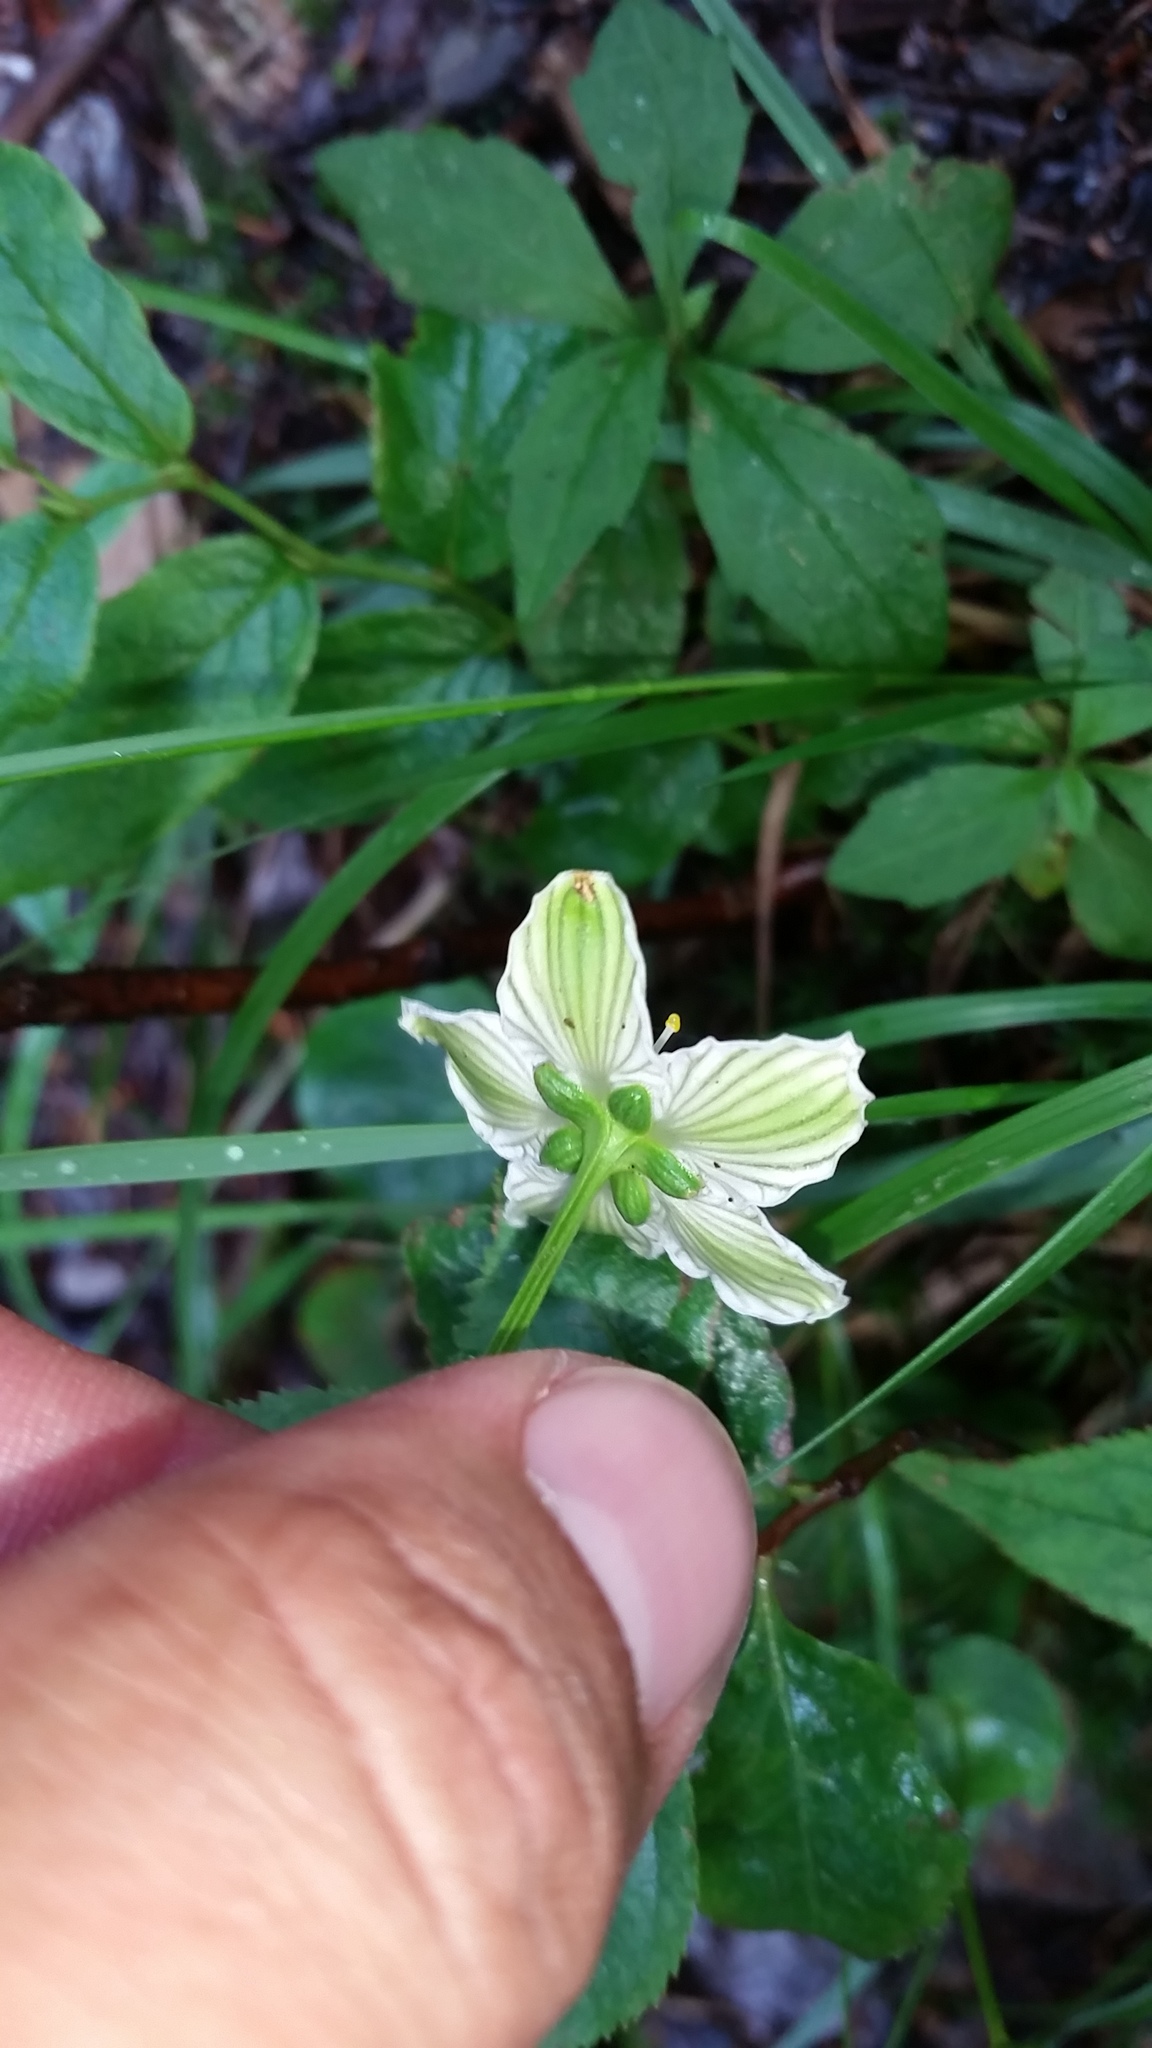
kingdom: Plantae
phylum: Tracheophyta
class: Magnoliopsida
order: Celastrales
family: Parnassiaceae
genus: Parnassia
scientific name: Parnassia asarifolia
